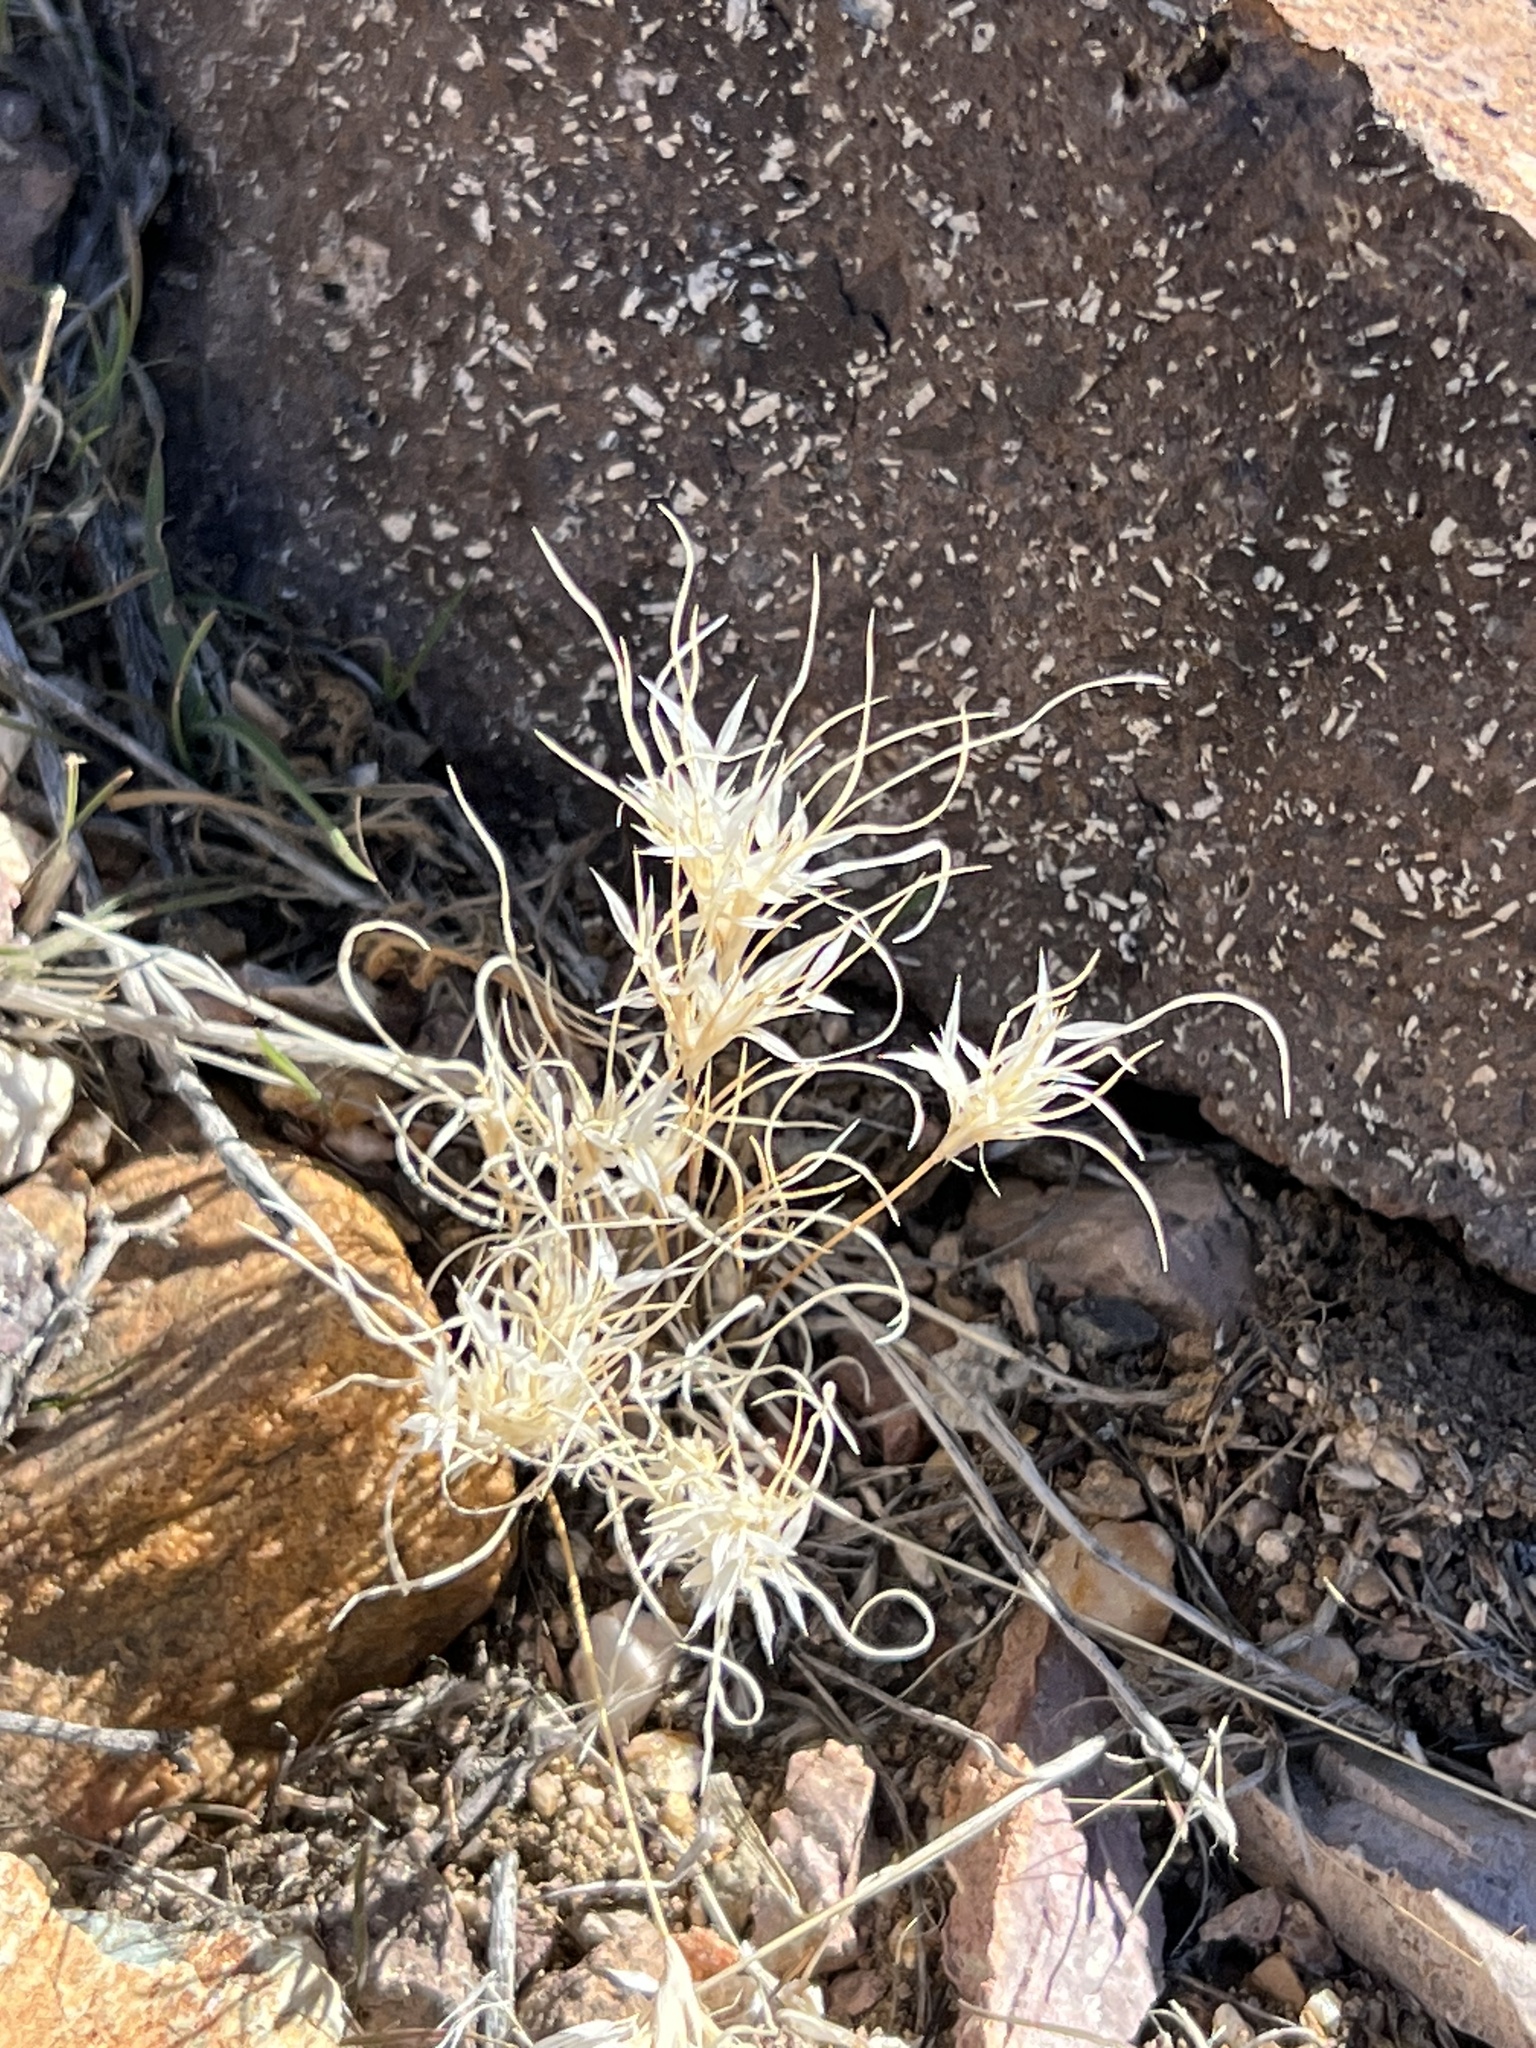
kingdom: Plantae
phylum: Tracheophyta
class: Liliopsida
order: Poales
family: Poaceae
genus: Dasyochloa
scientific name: Dasyochloa pulchella
